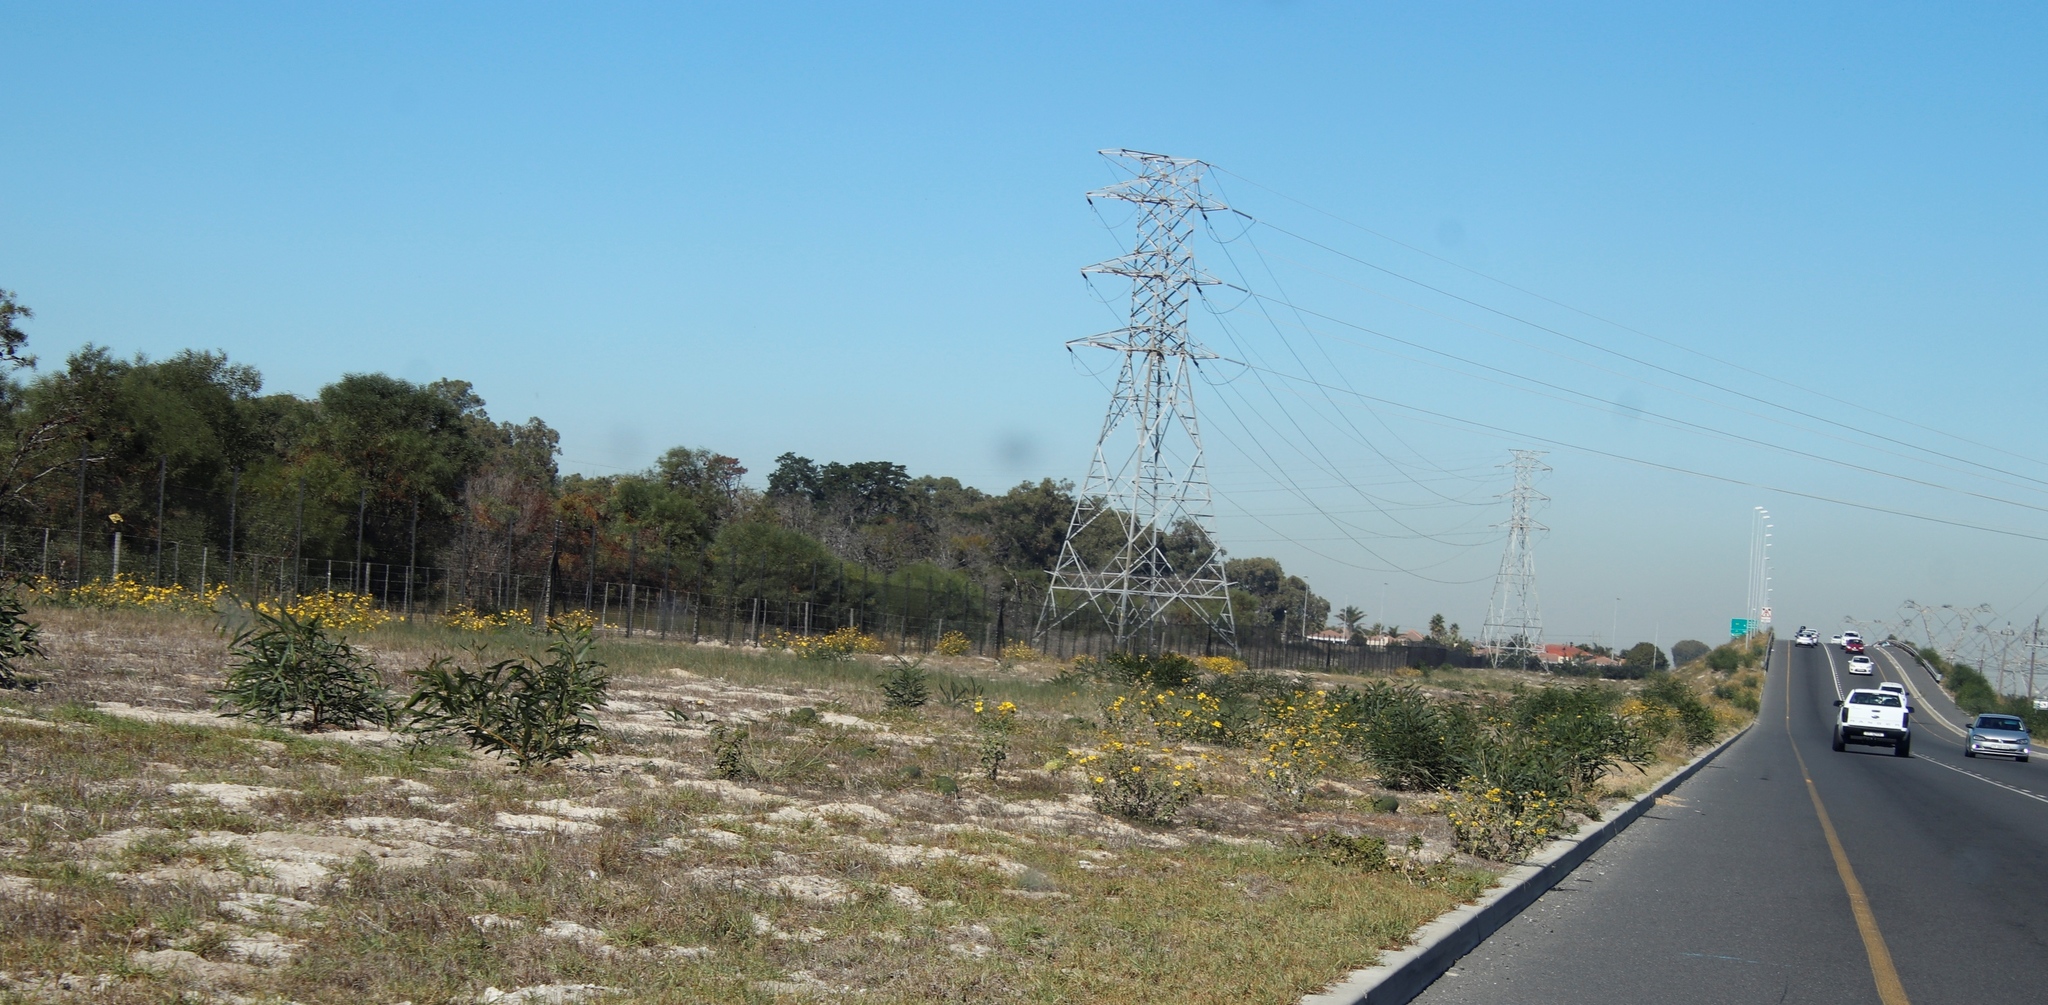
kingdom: Plantae
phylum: Tracheophyta
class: Magnoliopsida
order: Asterales
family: Asteraceae
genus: Verbesina
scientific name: Verbesina encelioides
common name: Golden crownbeard
